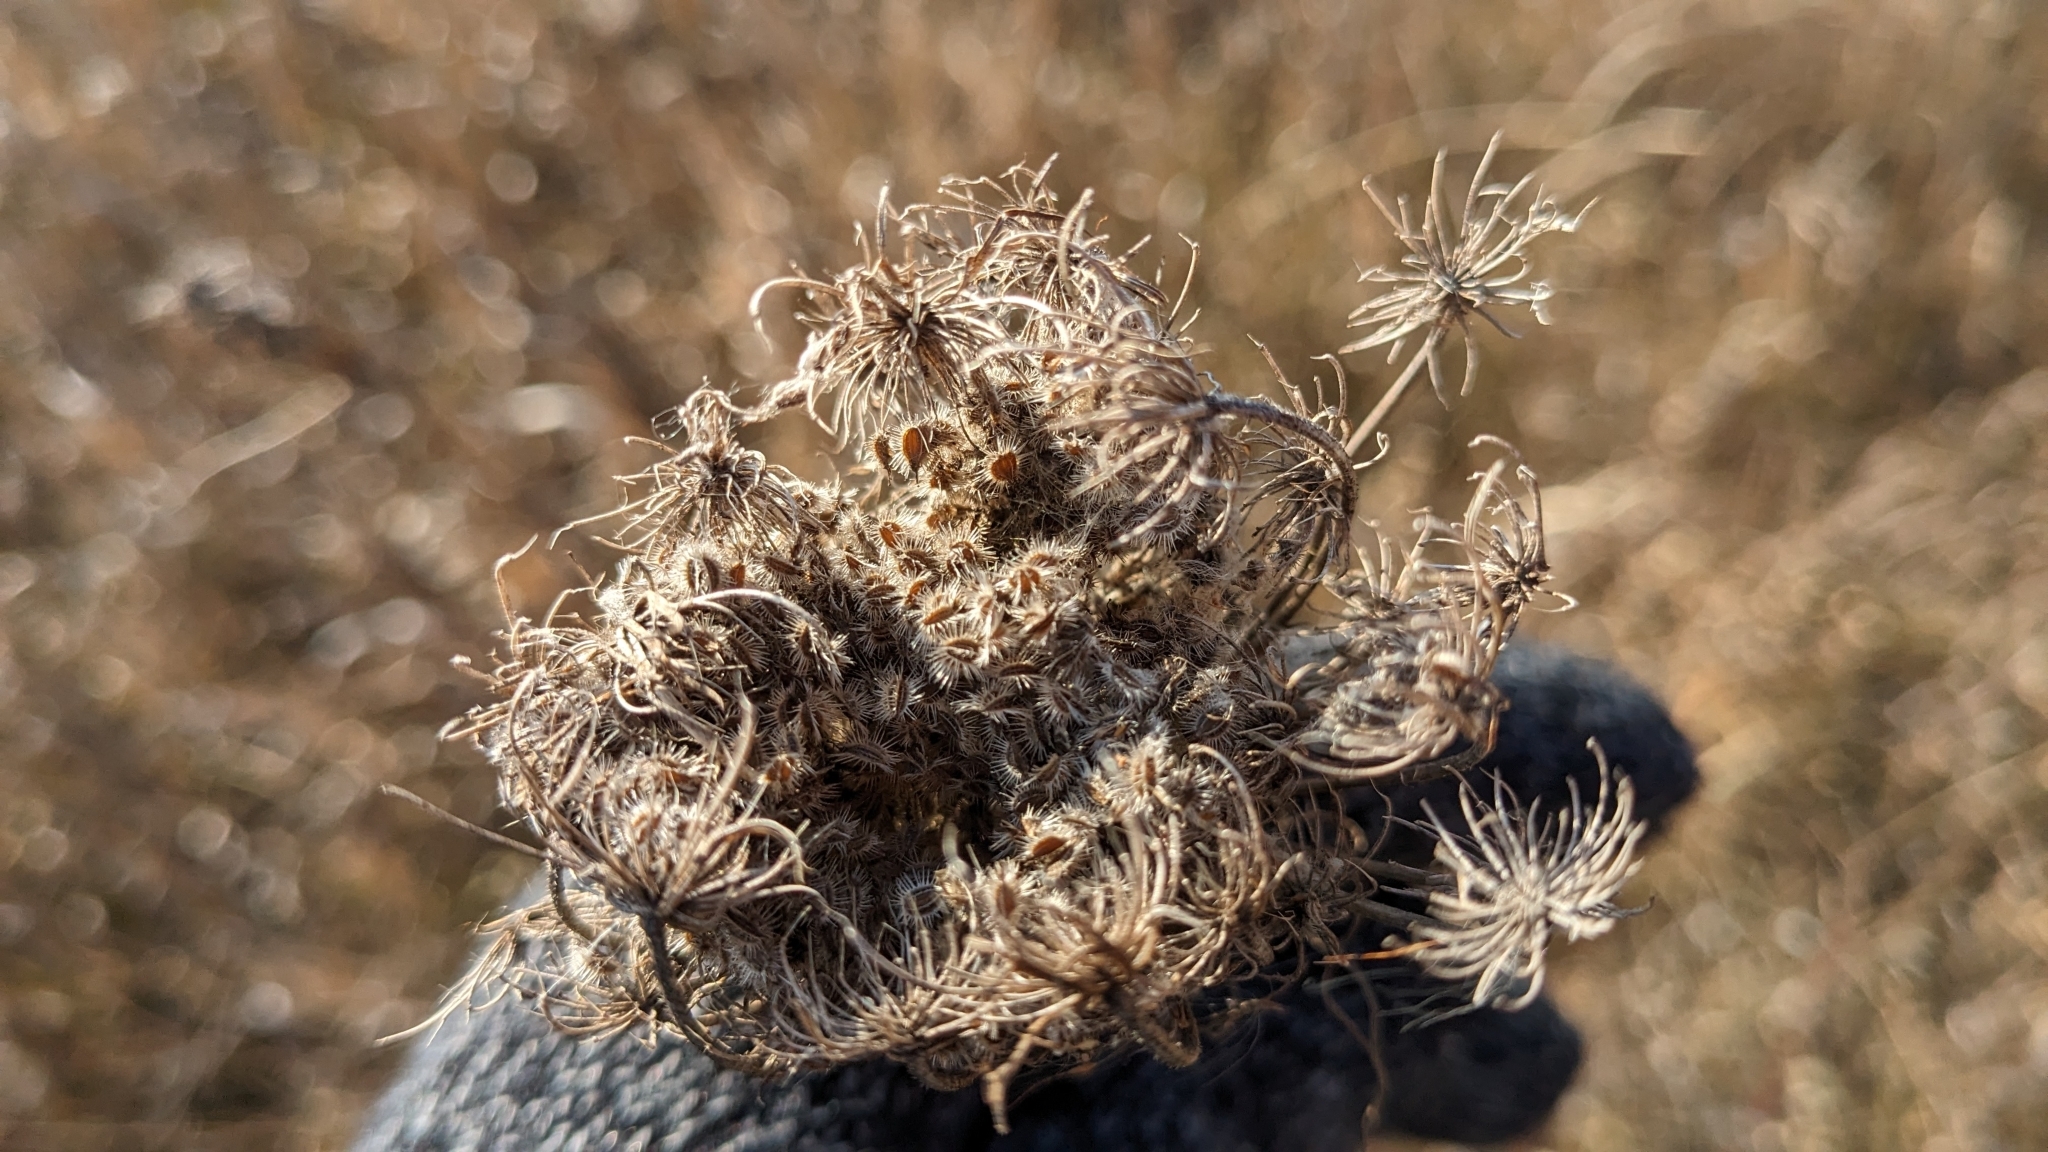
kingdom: Plantae
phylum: Tracheophyta
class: Magnoliopsida
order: Apiales
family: Apiaceae
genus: Daucus
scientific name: Daucus carota
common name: Wild carrot
